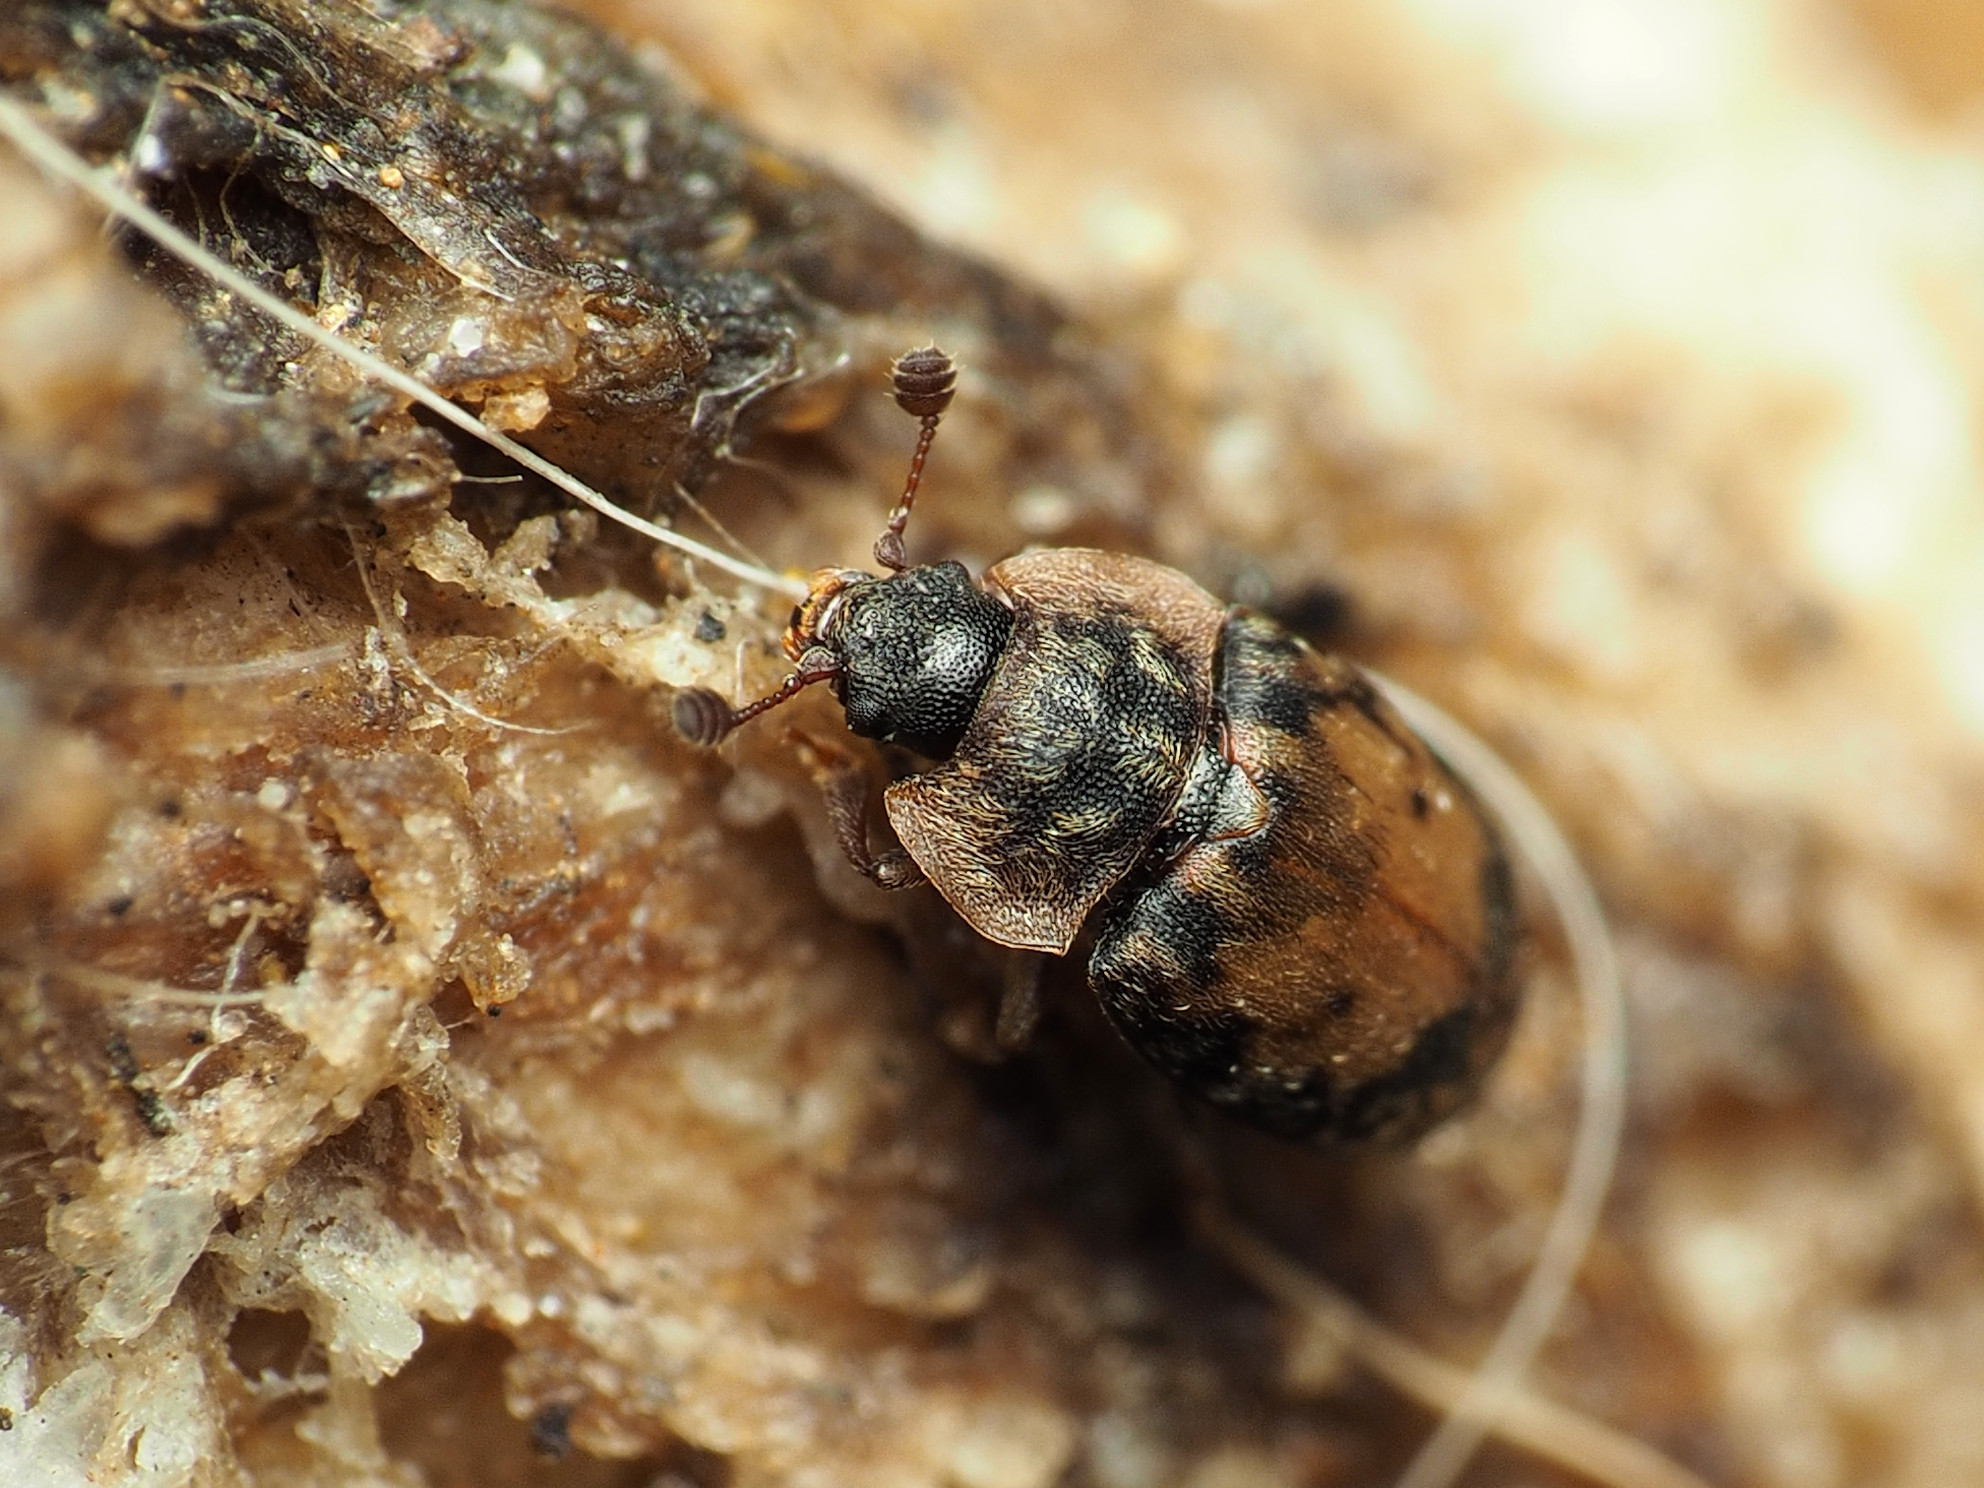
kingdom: Animalia
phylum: Arthropoda
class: Insecta
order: Coleoptera
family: Nitidulidae
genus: Omosita
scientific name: Omosita discoidea
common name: Sap beetle
